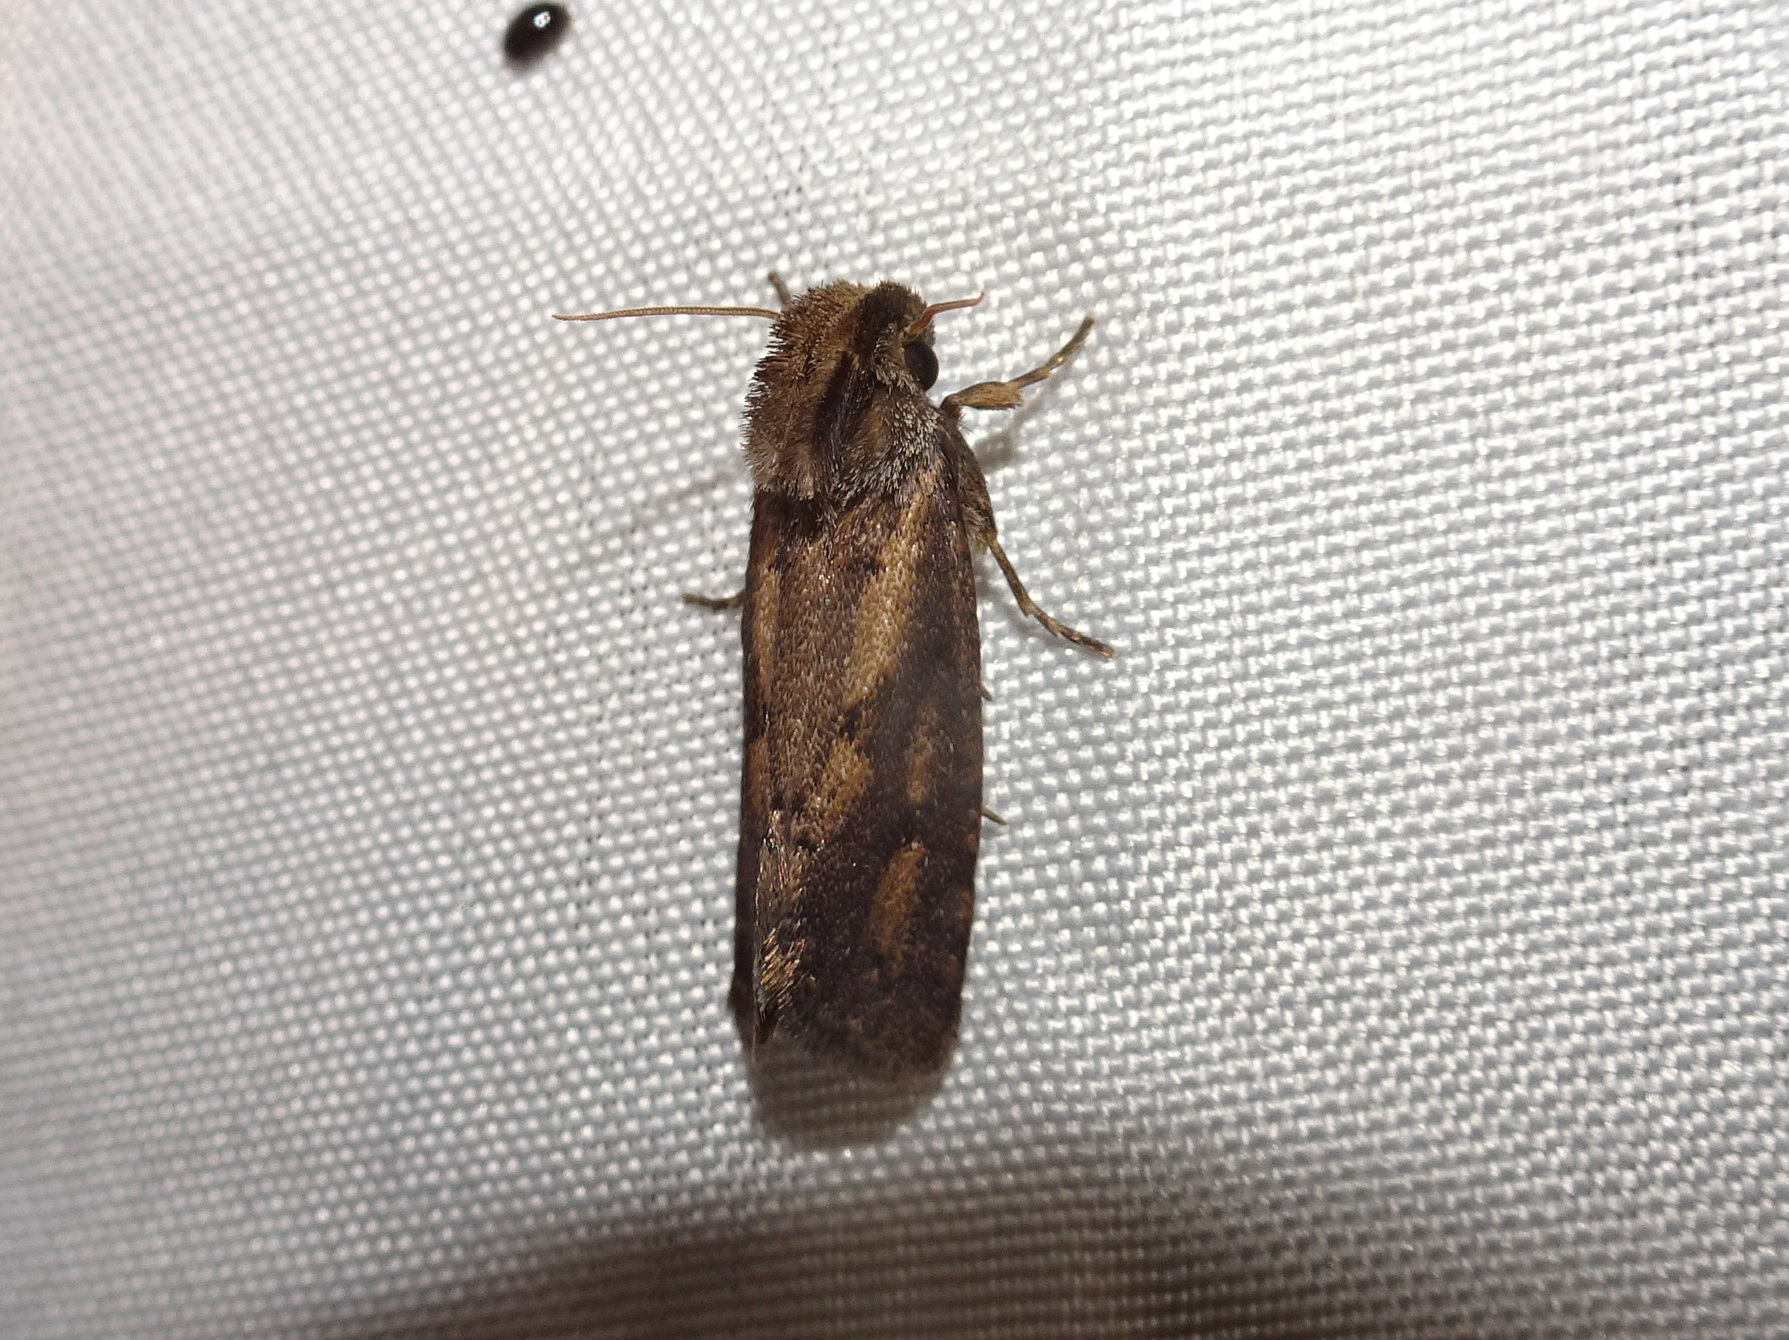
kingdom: Animalia
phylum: Arthropoda
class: Insecta
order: Lepidoptera
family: Tineidae
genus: Acrolophus
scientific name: Acrolophus popeanella
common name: Clemens' grass tubeworm moth
